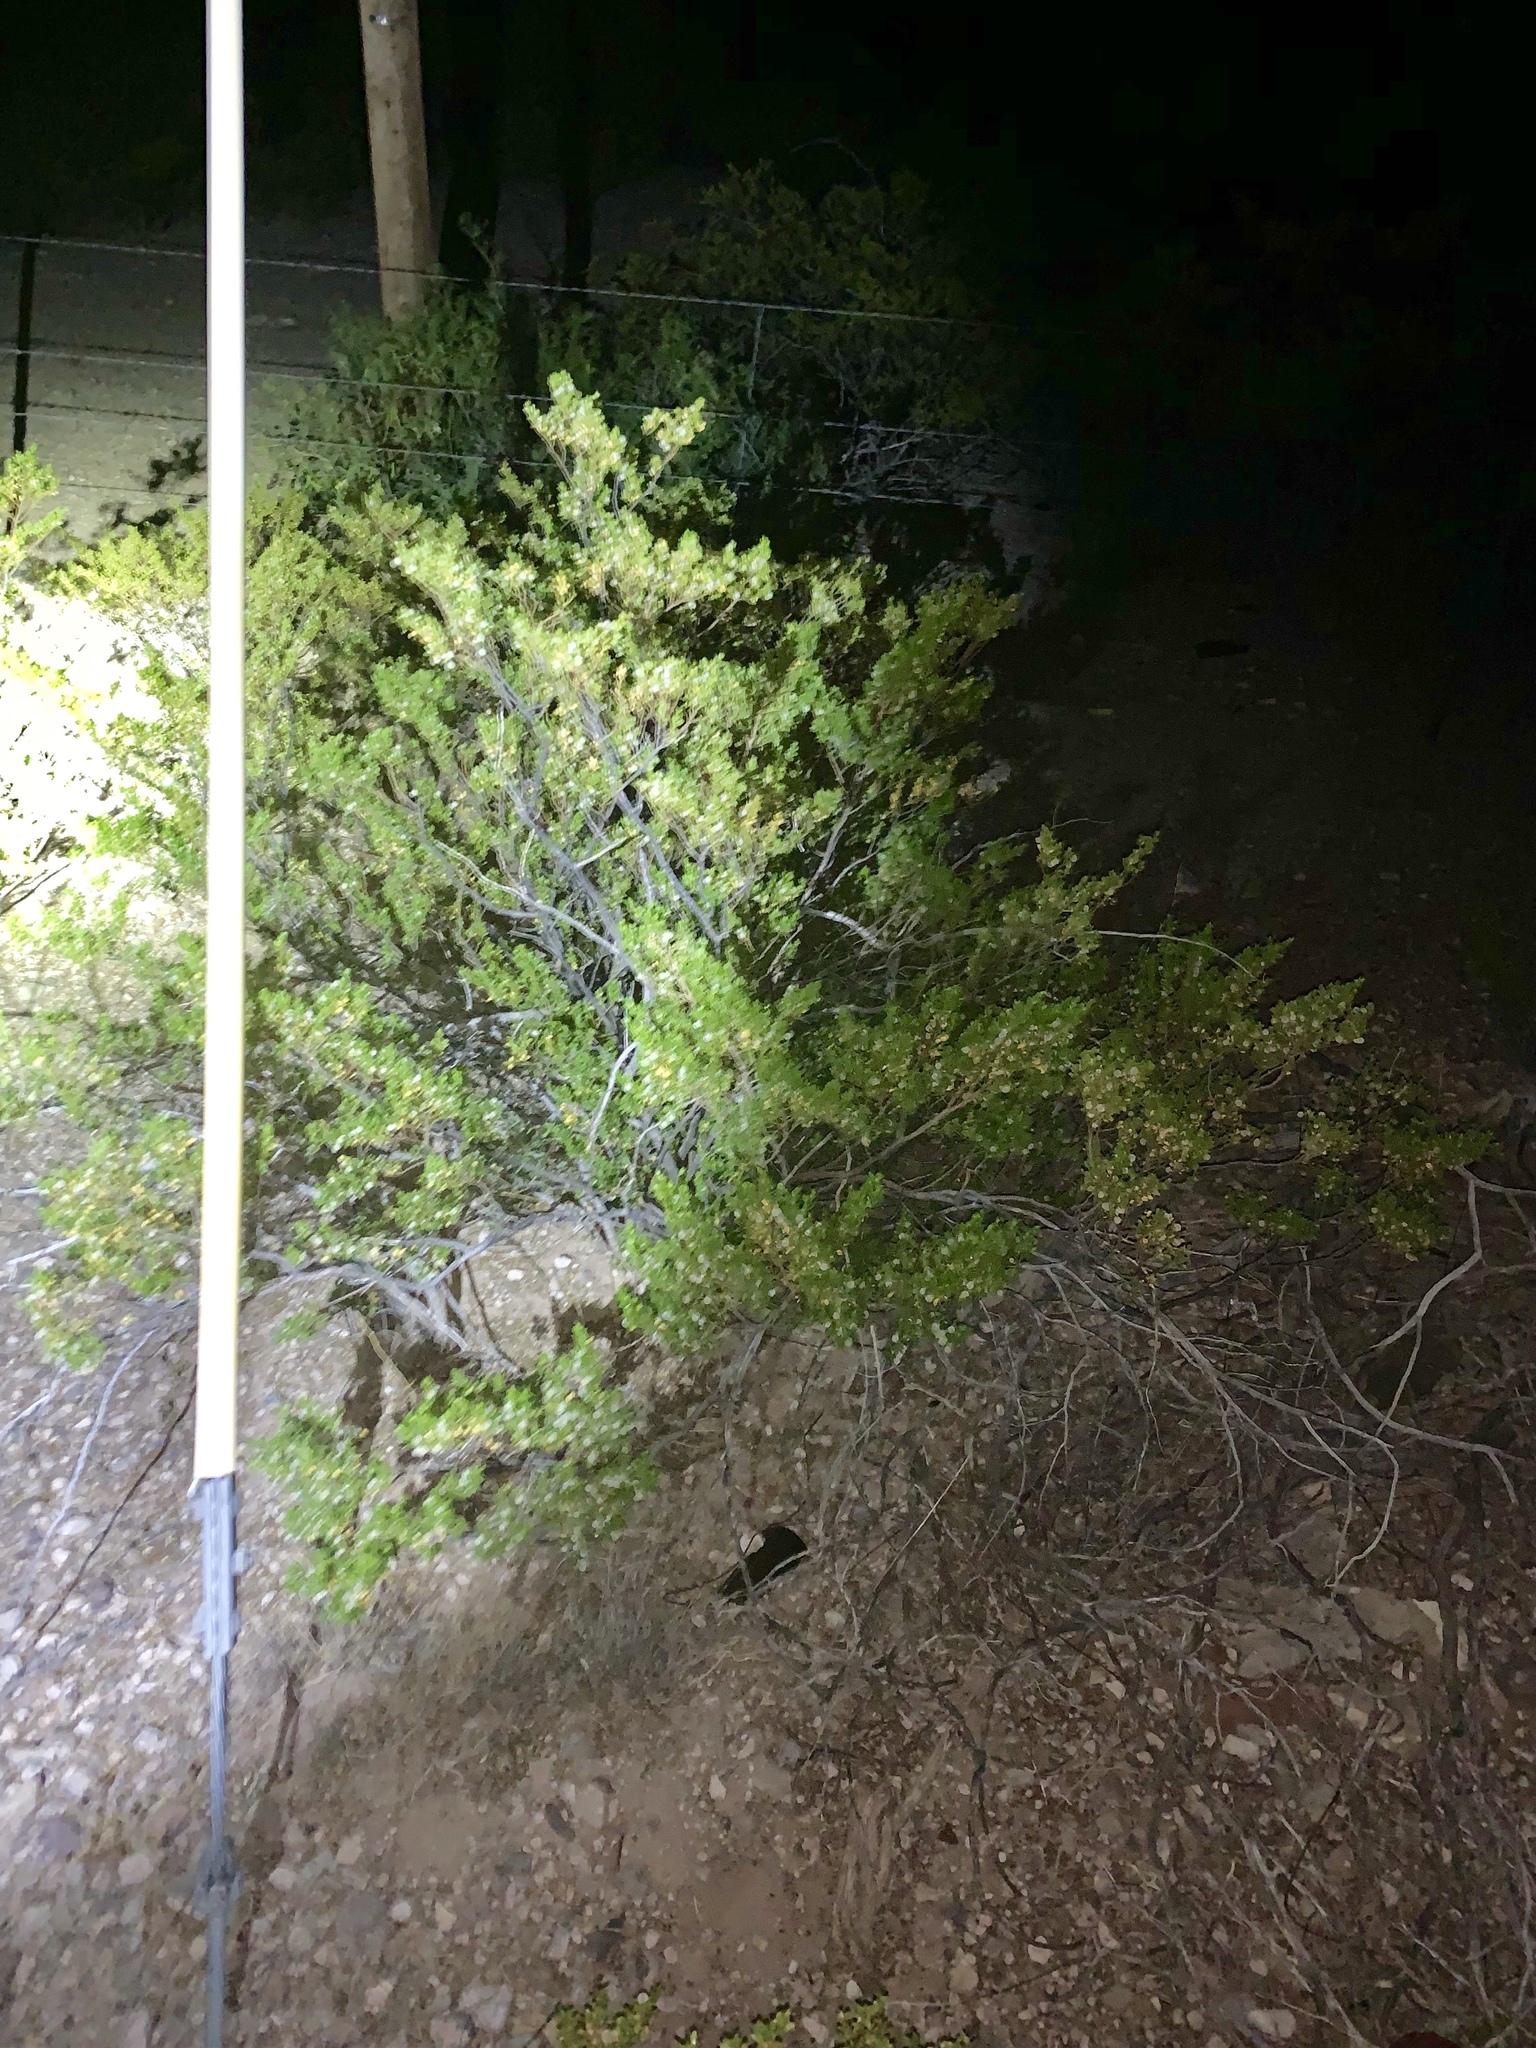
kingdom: Plantae
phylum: Tracheophyta
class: Magnoliopsida
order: Zygophyllales
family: Zygophyllaceae
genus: Larrea
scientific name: Larrea tridentata
